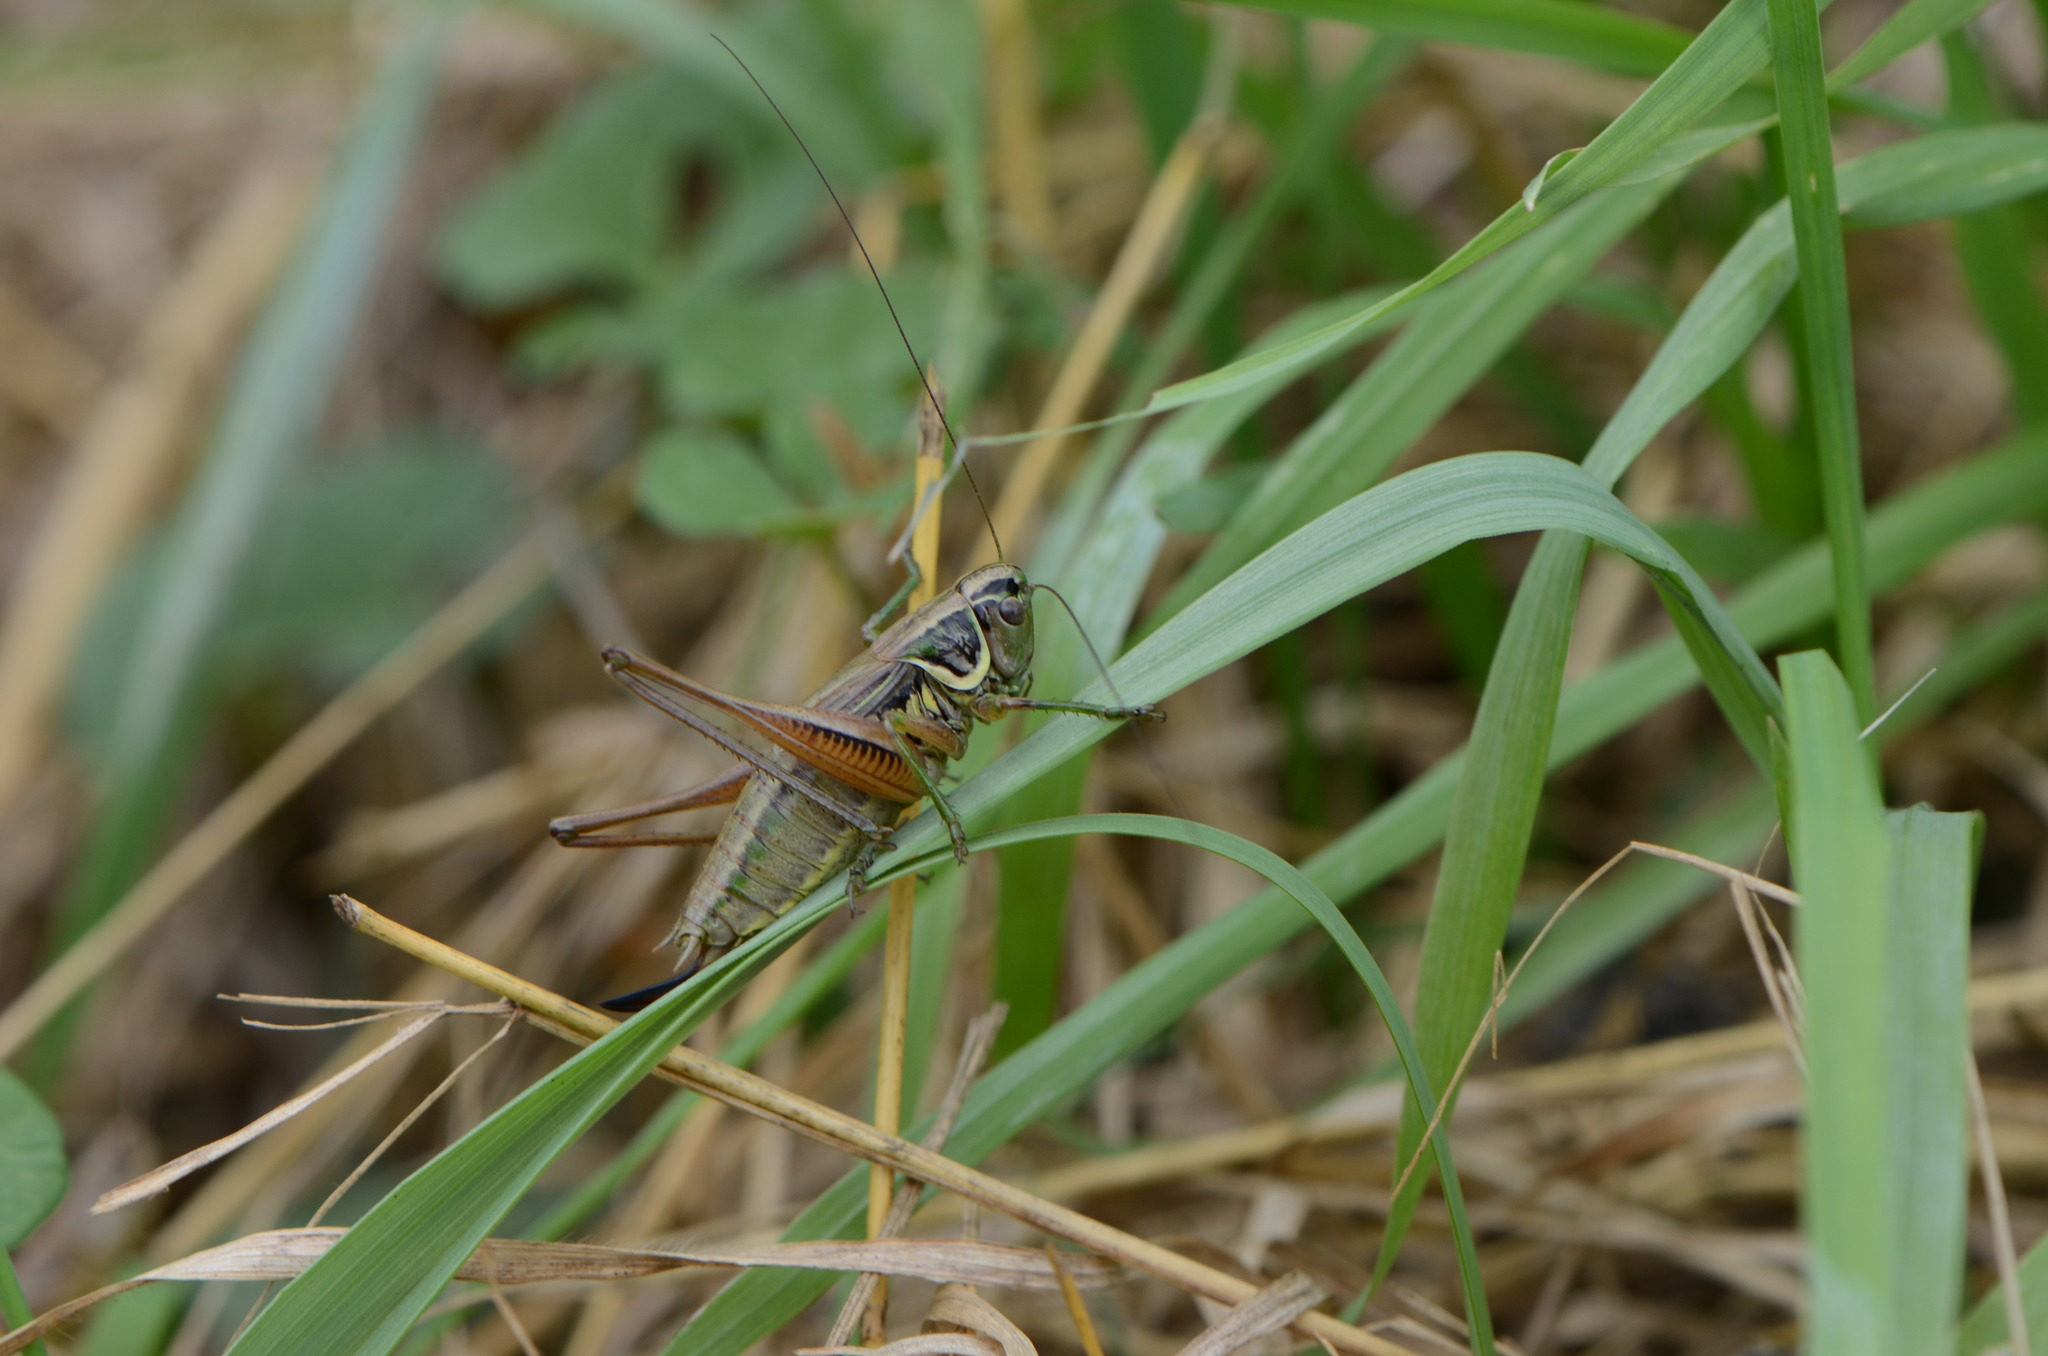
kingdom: Animalia
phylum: Arthropoda
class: Insecta
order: Orthoptera
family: Tettigoniidae
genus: Roeseliana
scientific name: Roeseliana roeselii
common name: Roesel's bush cricket
